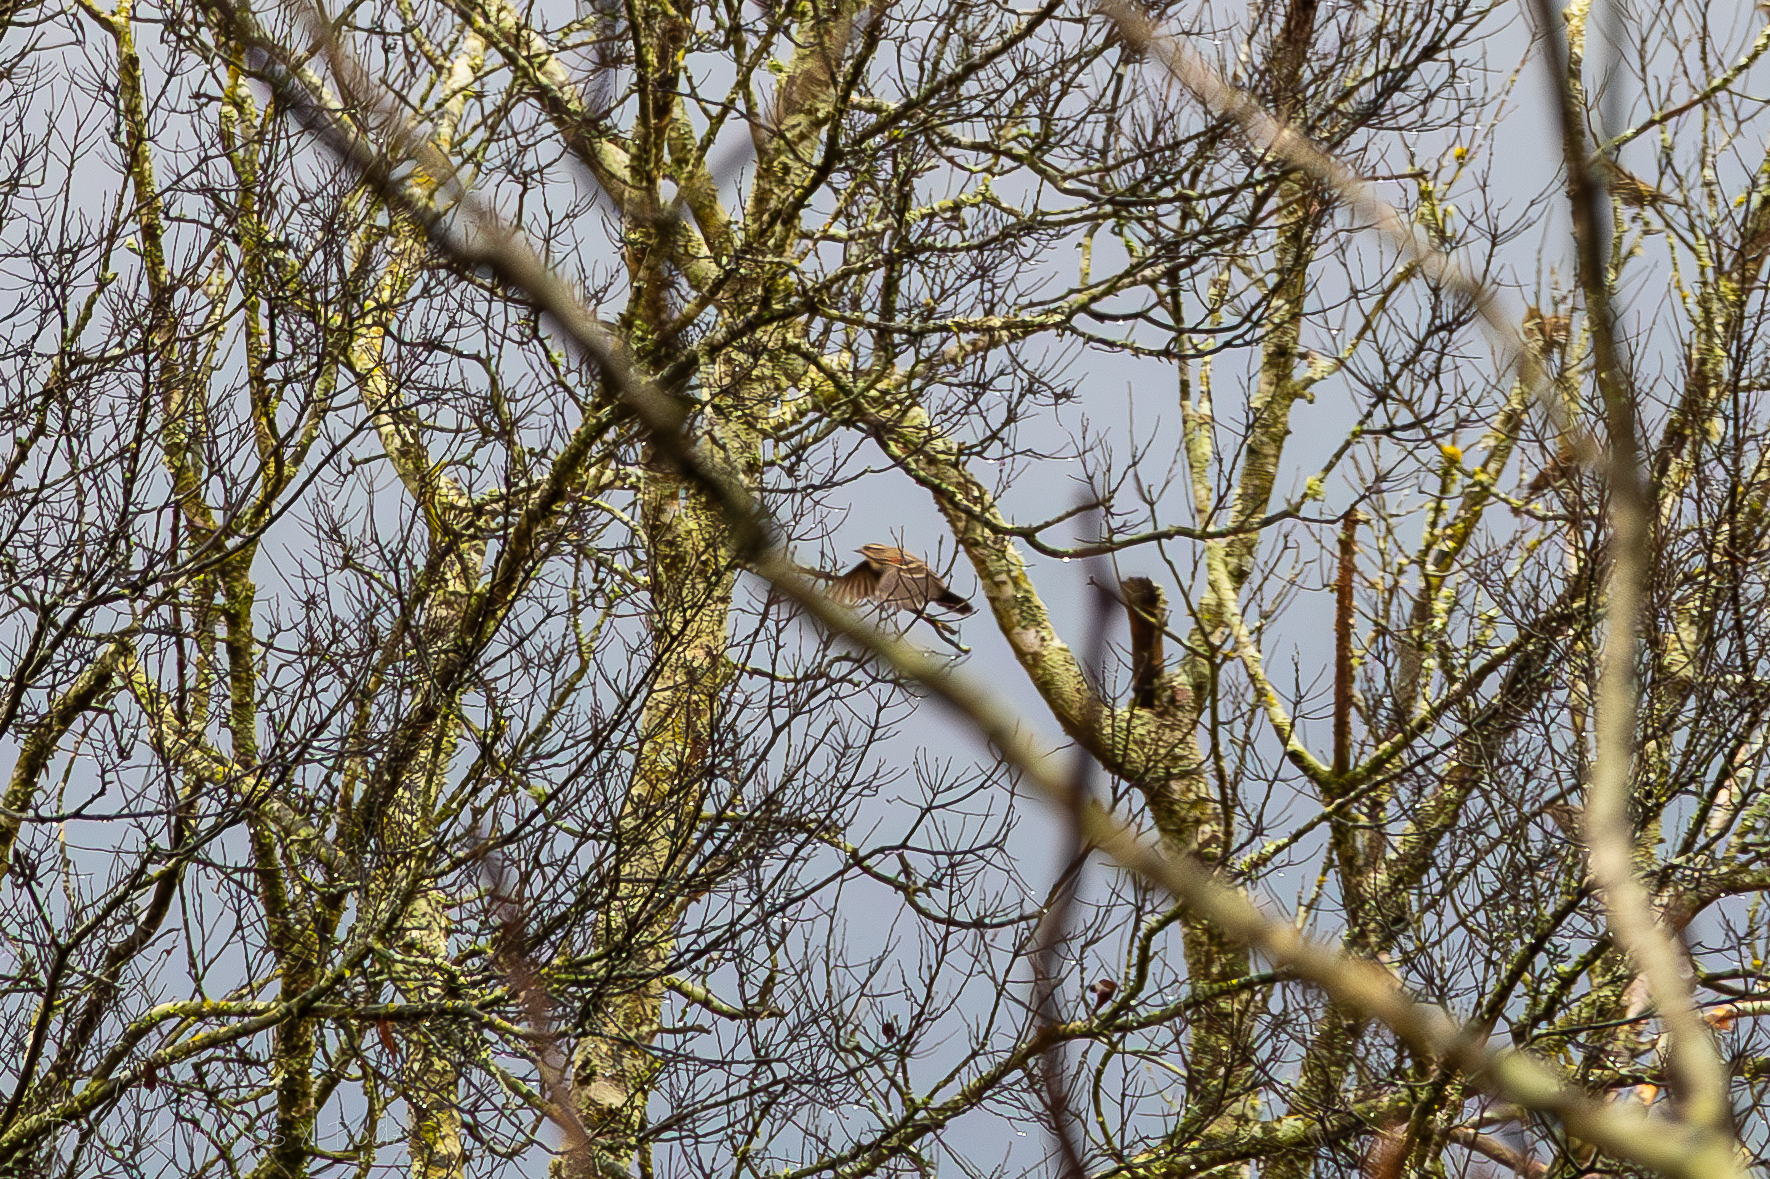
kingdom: Animalia
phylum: Chordata
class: Aves
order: Passeriformes
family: Icteridae
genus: Agelaius
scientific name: Agelaius phoeniceus
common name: Red-winged blackbird
